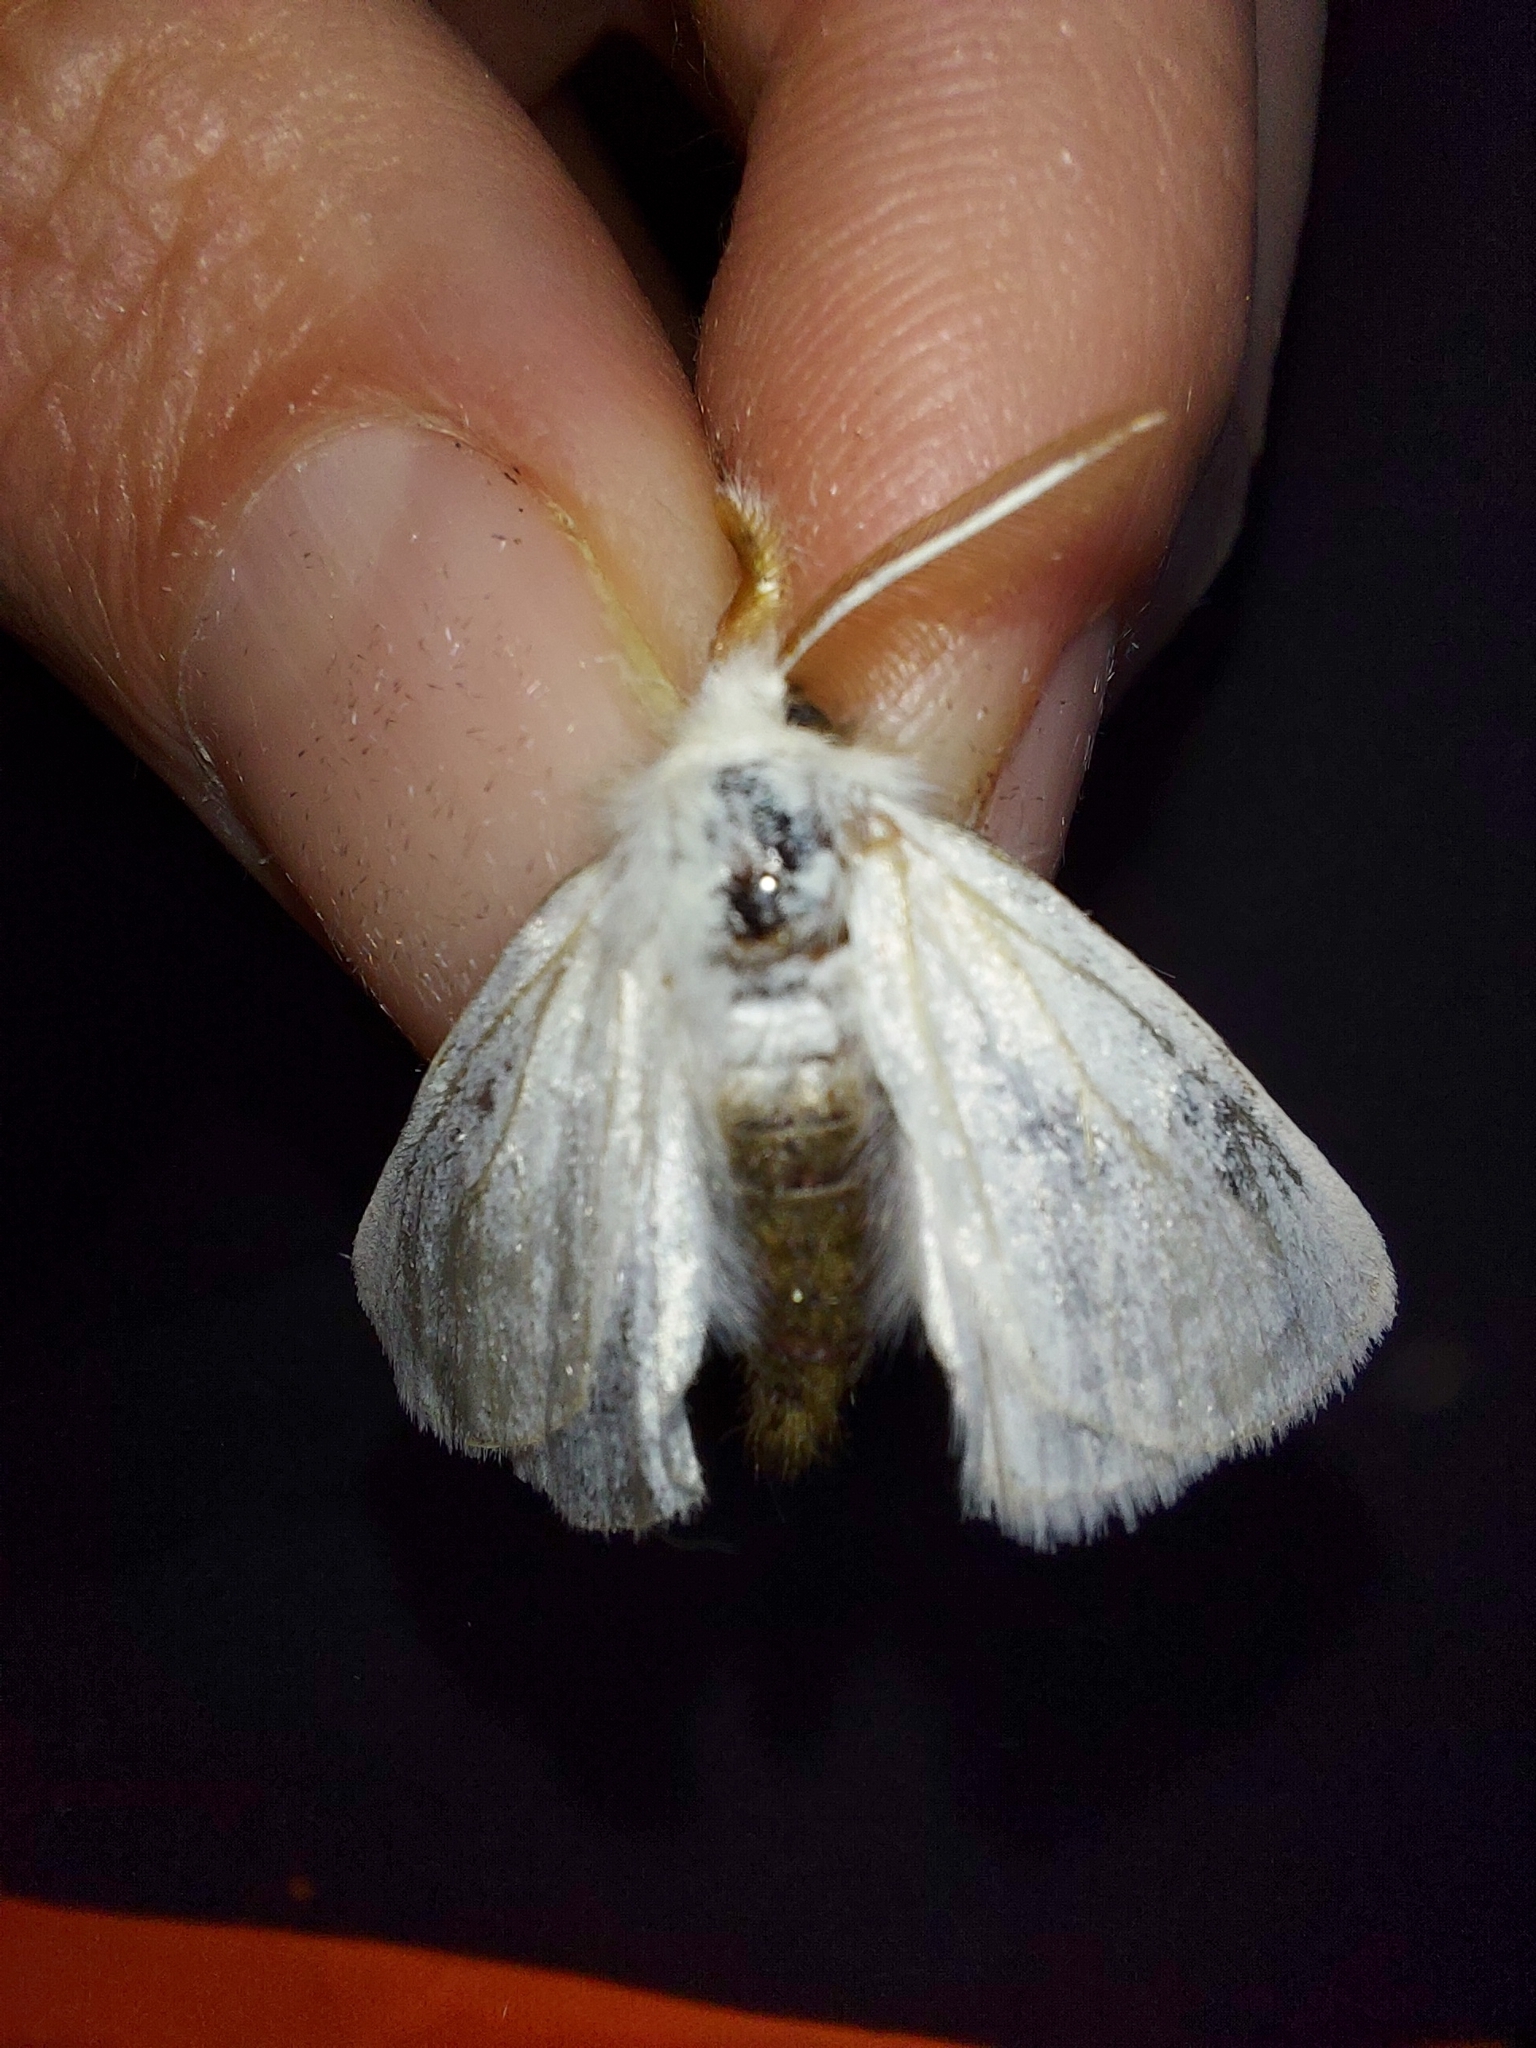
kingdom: Animalia
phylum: Arthropoda
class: Insecta
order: Lepidoptera
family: Erebidae
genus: Euproctis
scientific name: Euproctis chrysorrhoea
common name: Brown-tail
